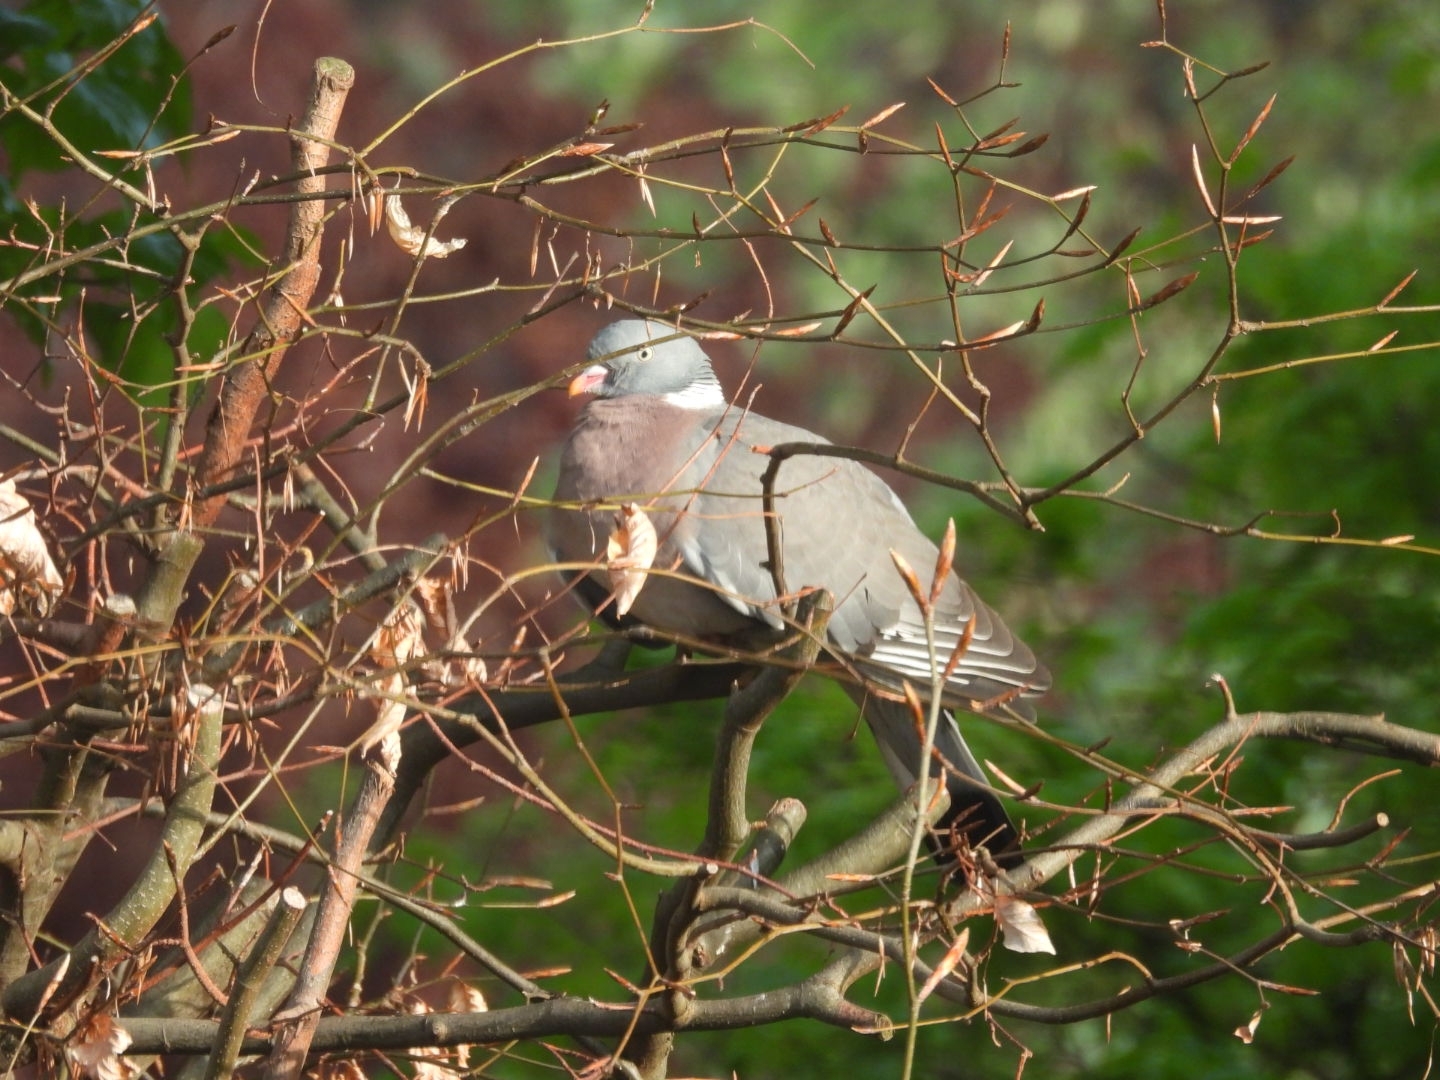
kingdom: Animalia
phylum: Chordata
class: Aves
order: Columbiformes
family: Columbidae
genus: Columba
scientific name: Columba palumbus
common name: Common wood pigeon
